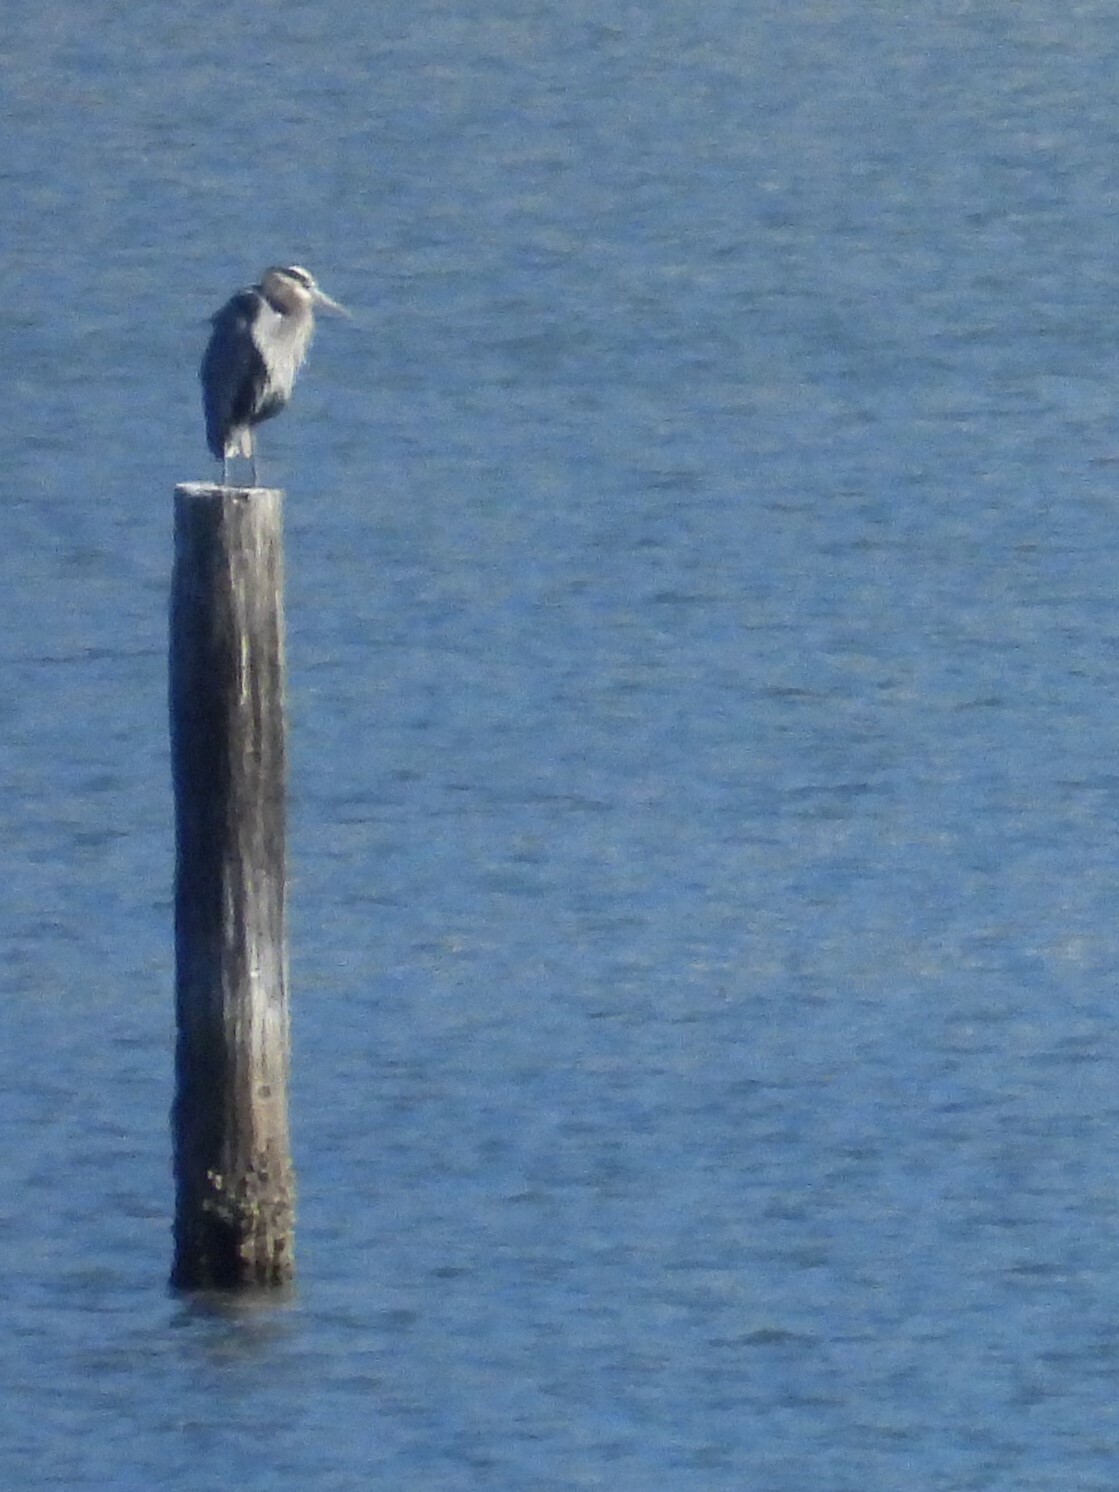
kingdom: Animalia
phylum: Chordata
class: Aves
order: Pelecaniformes
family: Ardeidae
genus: Ardea
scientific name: Ardea herodias
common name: Great blue heron
